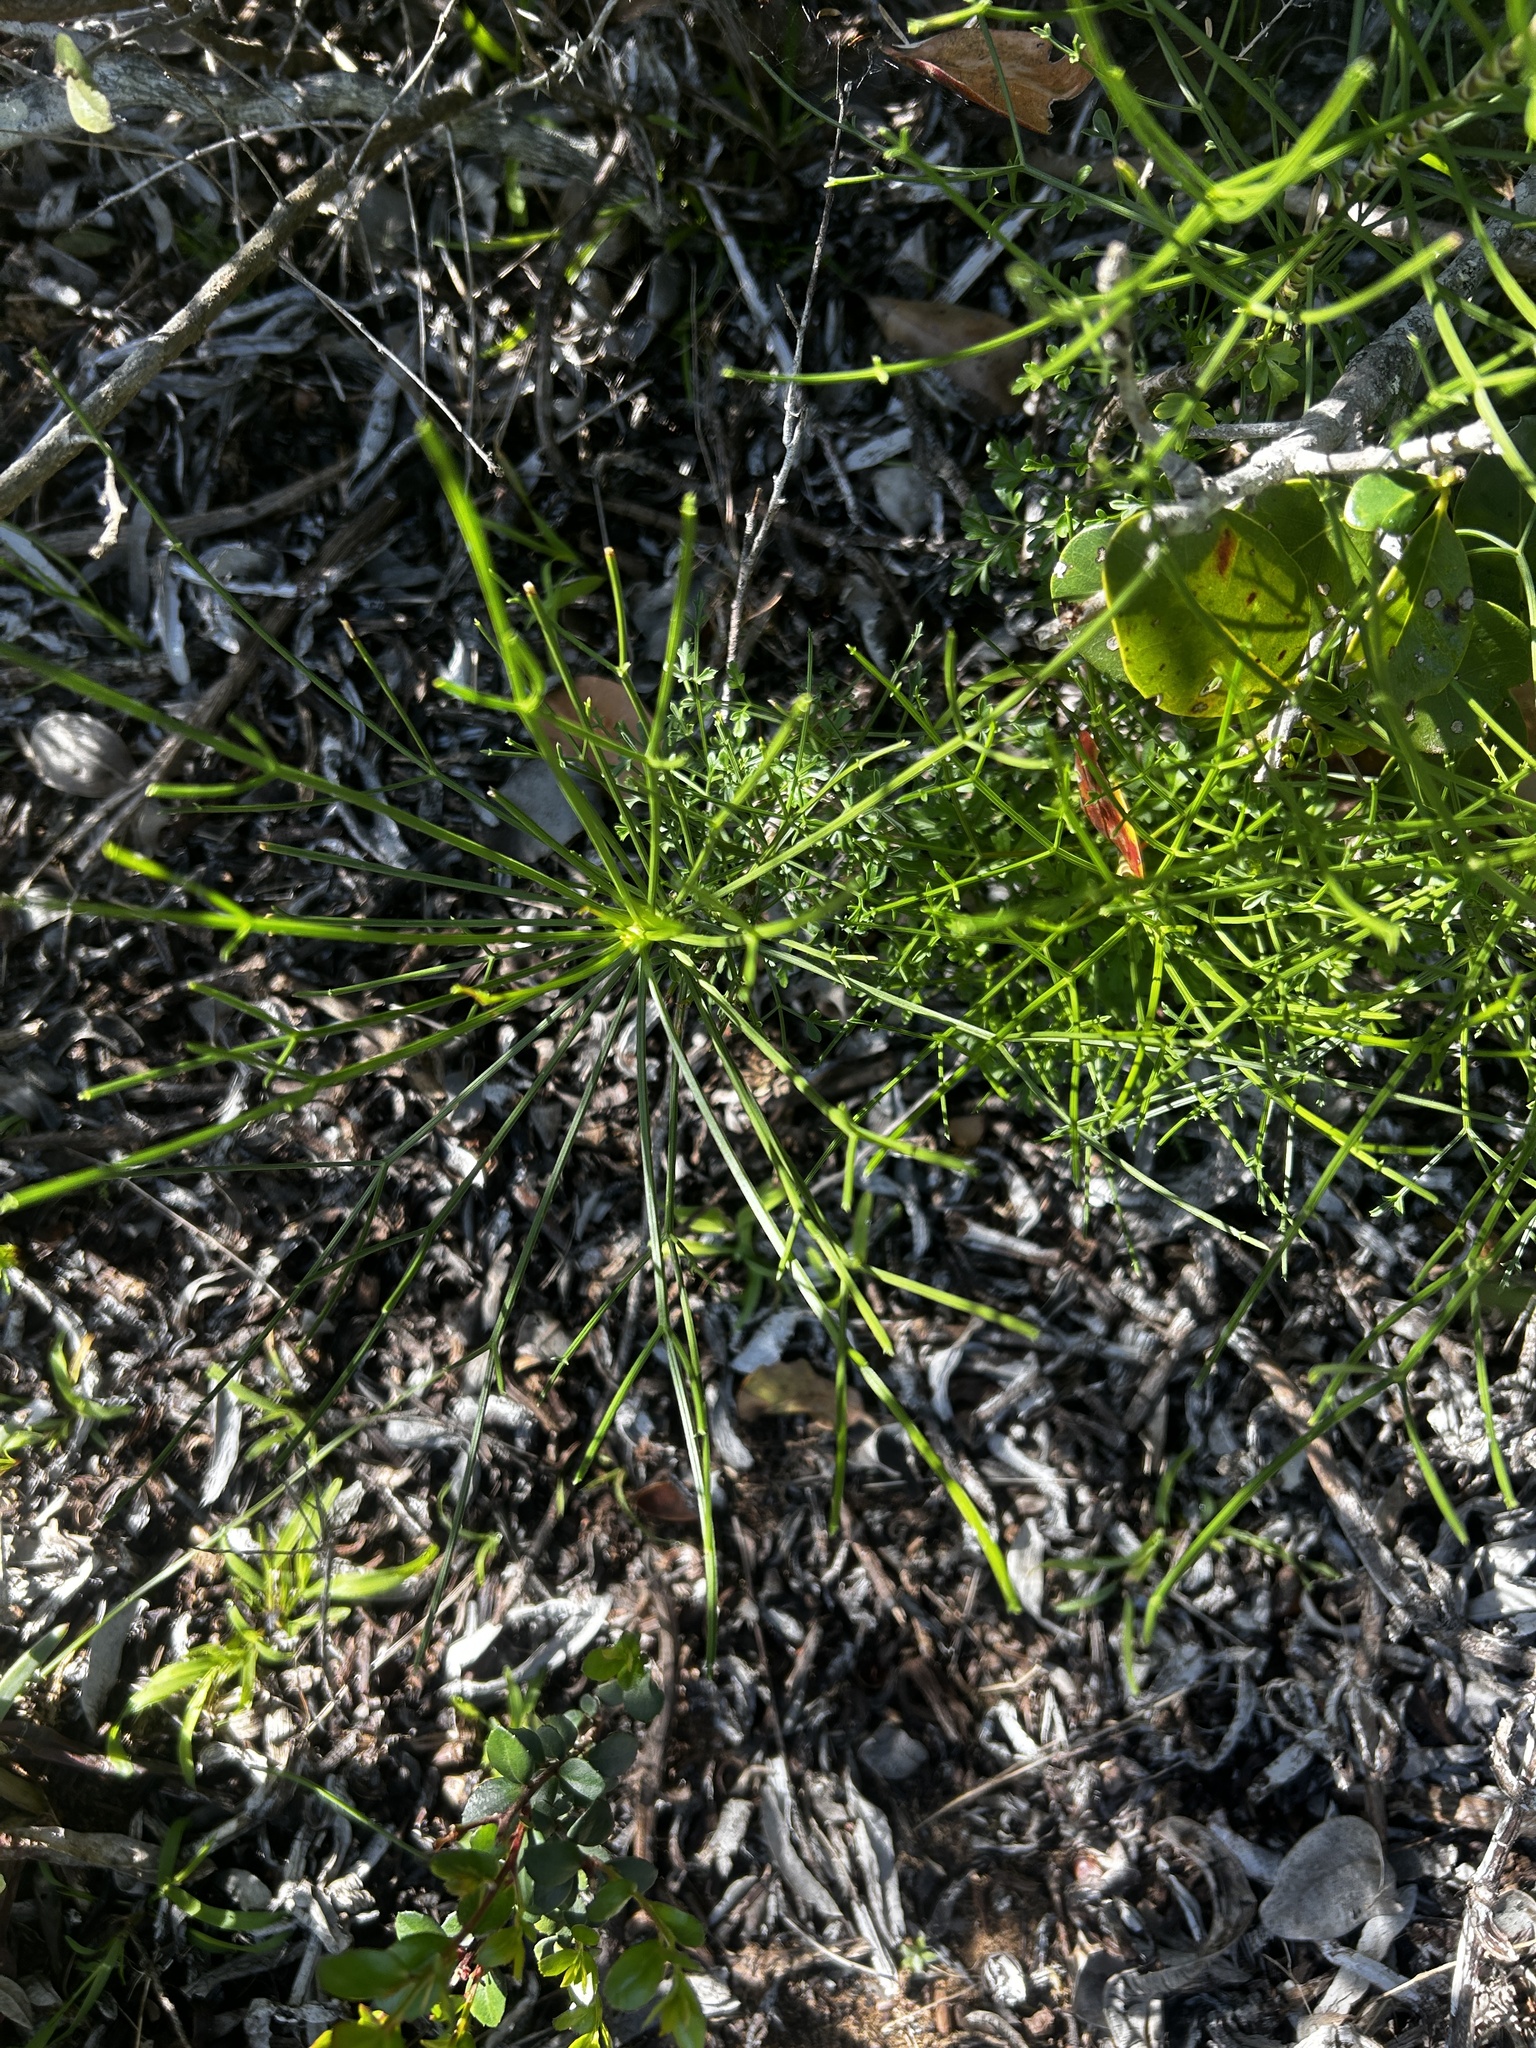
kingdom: Plantae
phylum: Tracheophyta
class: Magnoliopsida
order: Apiales
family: Apiaceae
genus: Anginon
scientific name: Anginon difforme
